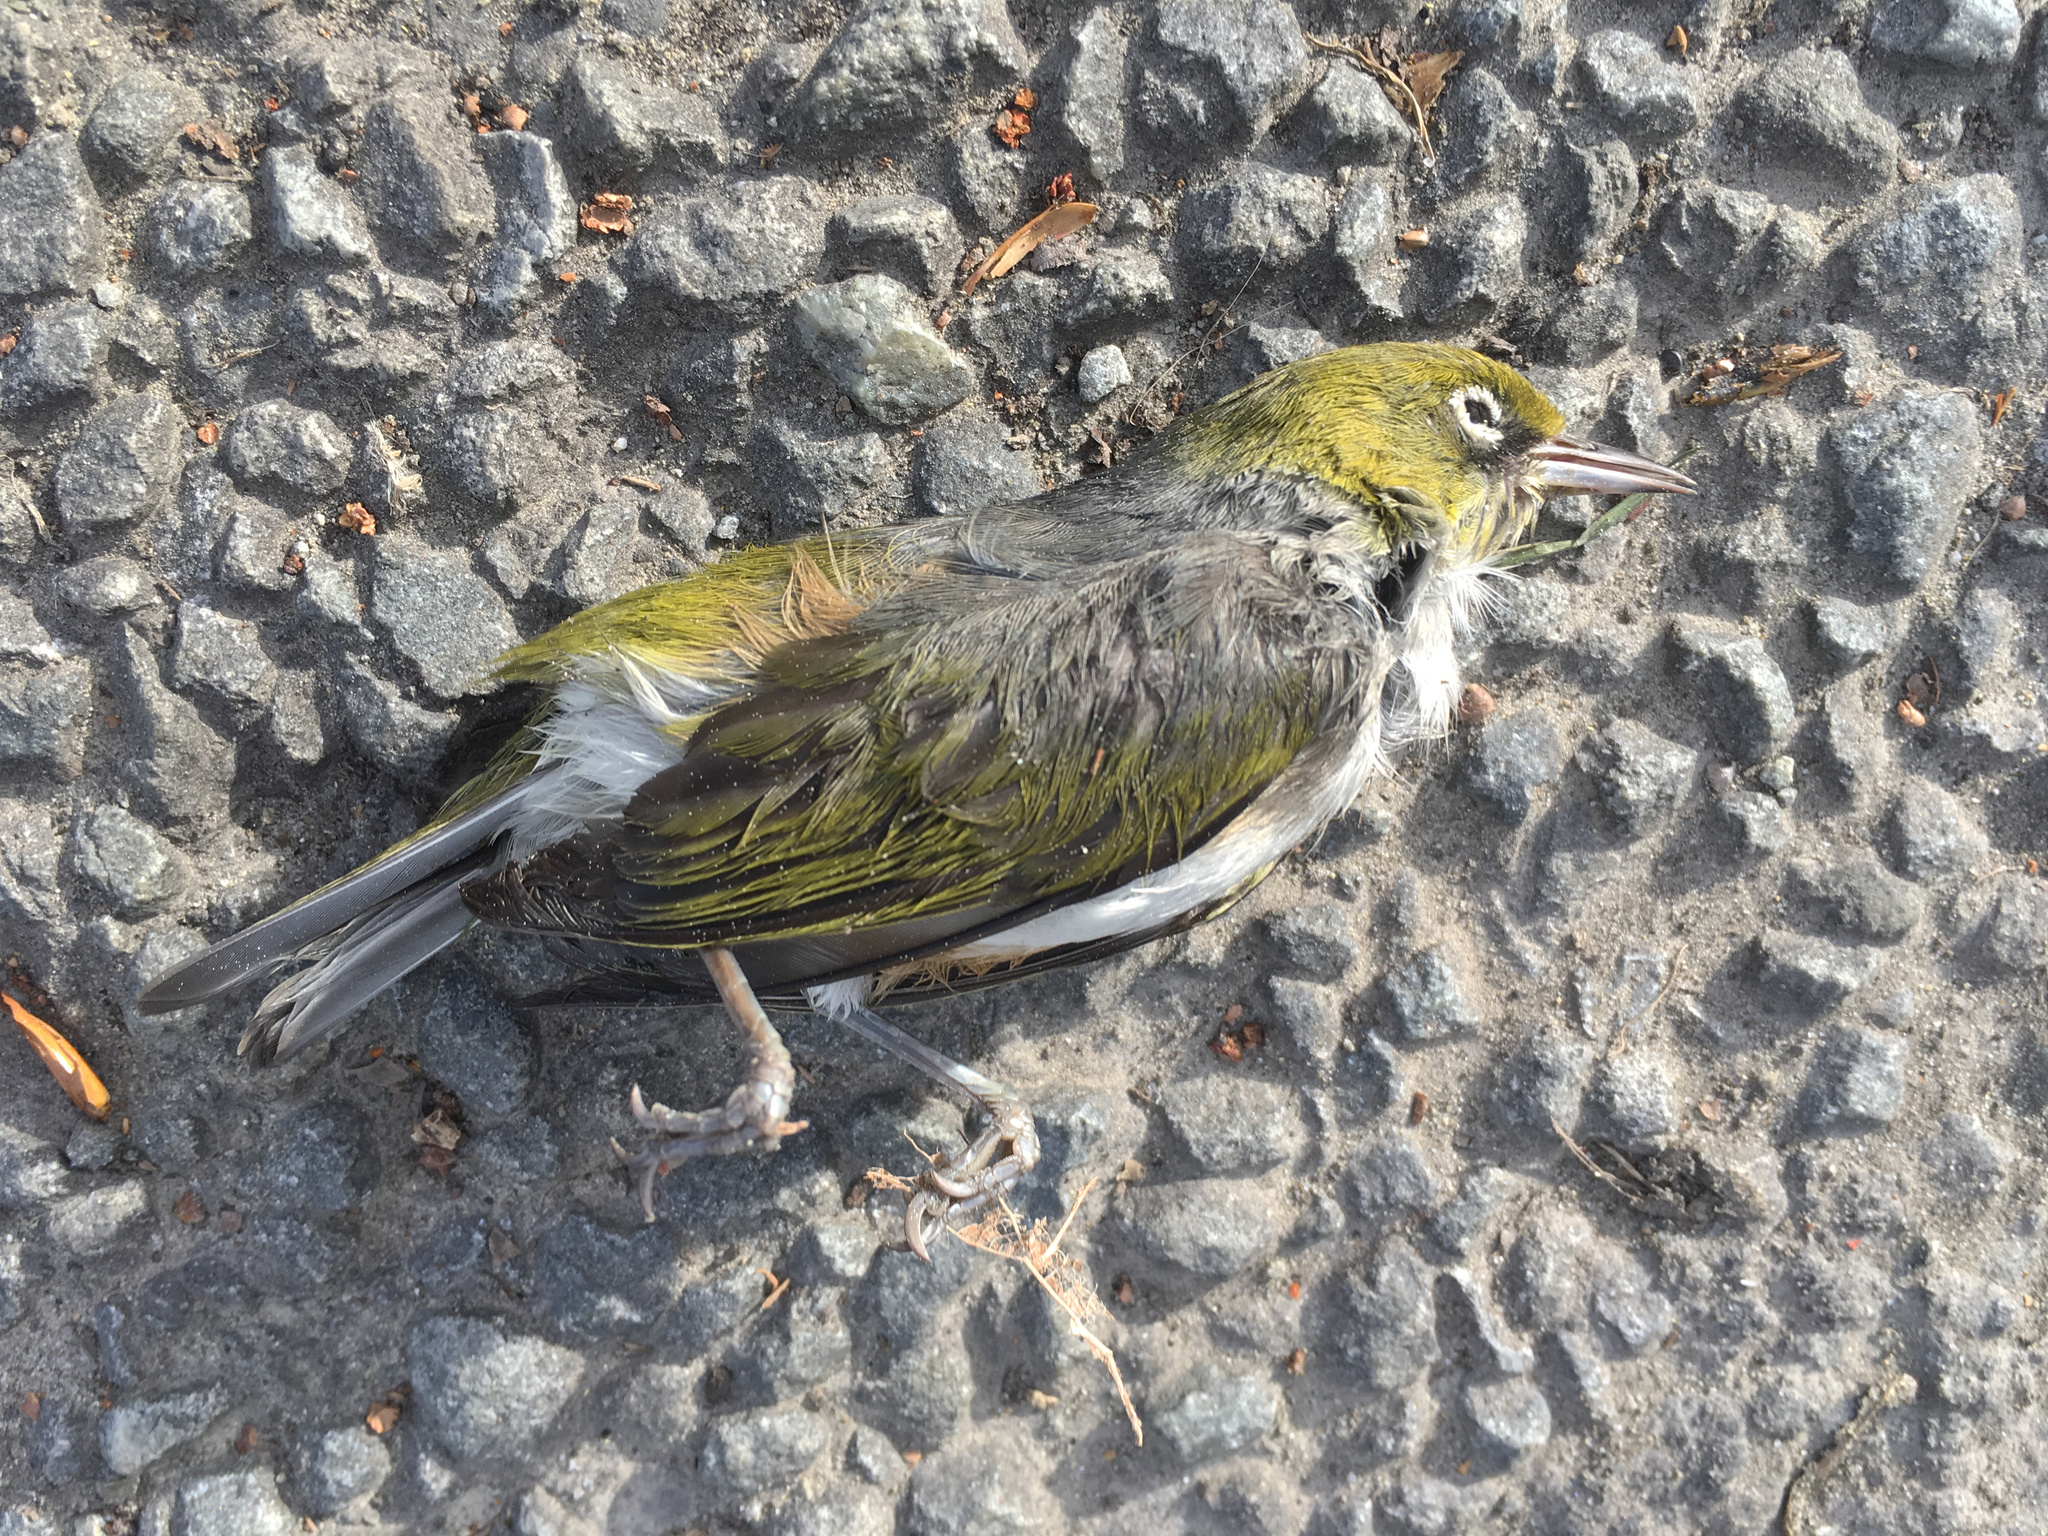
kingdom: Animalia
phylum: Chordata
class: Aves
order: Passeriformes
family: Zosteropidae
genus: Zosterops
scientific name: Zosterops lateralis
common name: Silvereye
